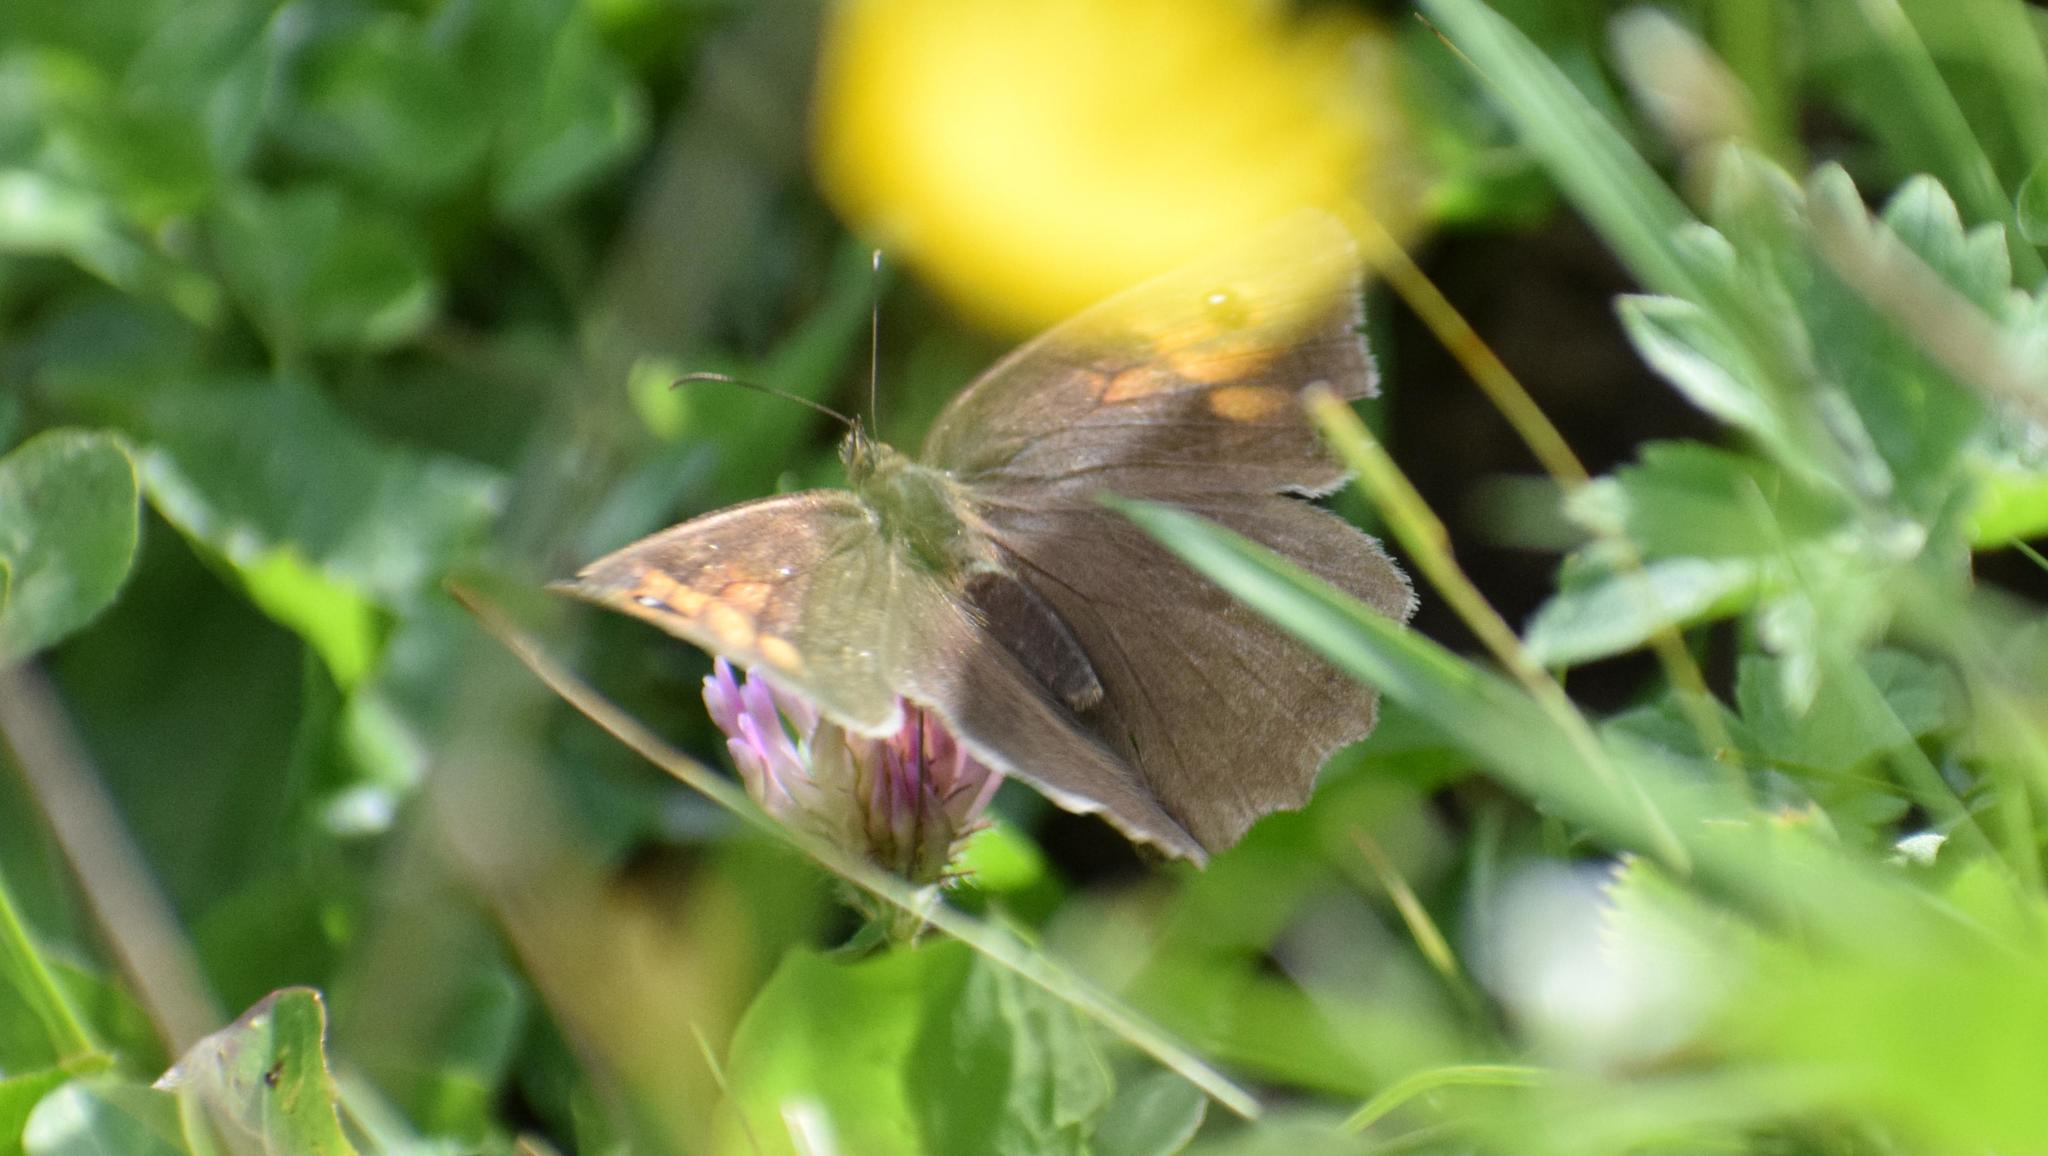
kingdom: Animalia
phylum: Arthropoda
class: Insecta
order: Lepidoptera
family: Nymphalidae
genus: Maniola
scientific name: Maniola jurtina
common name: Meadow brown
